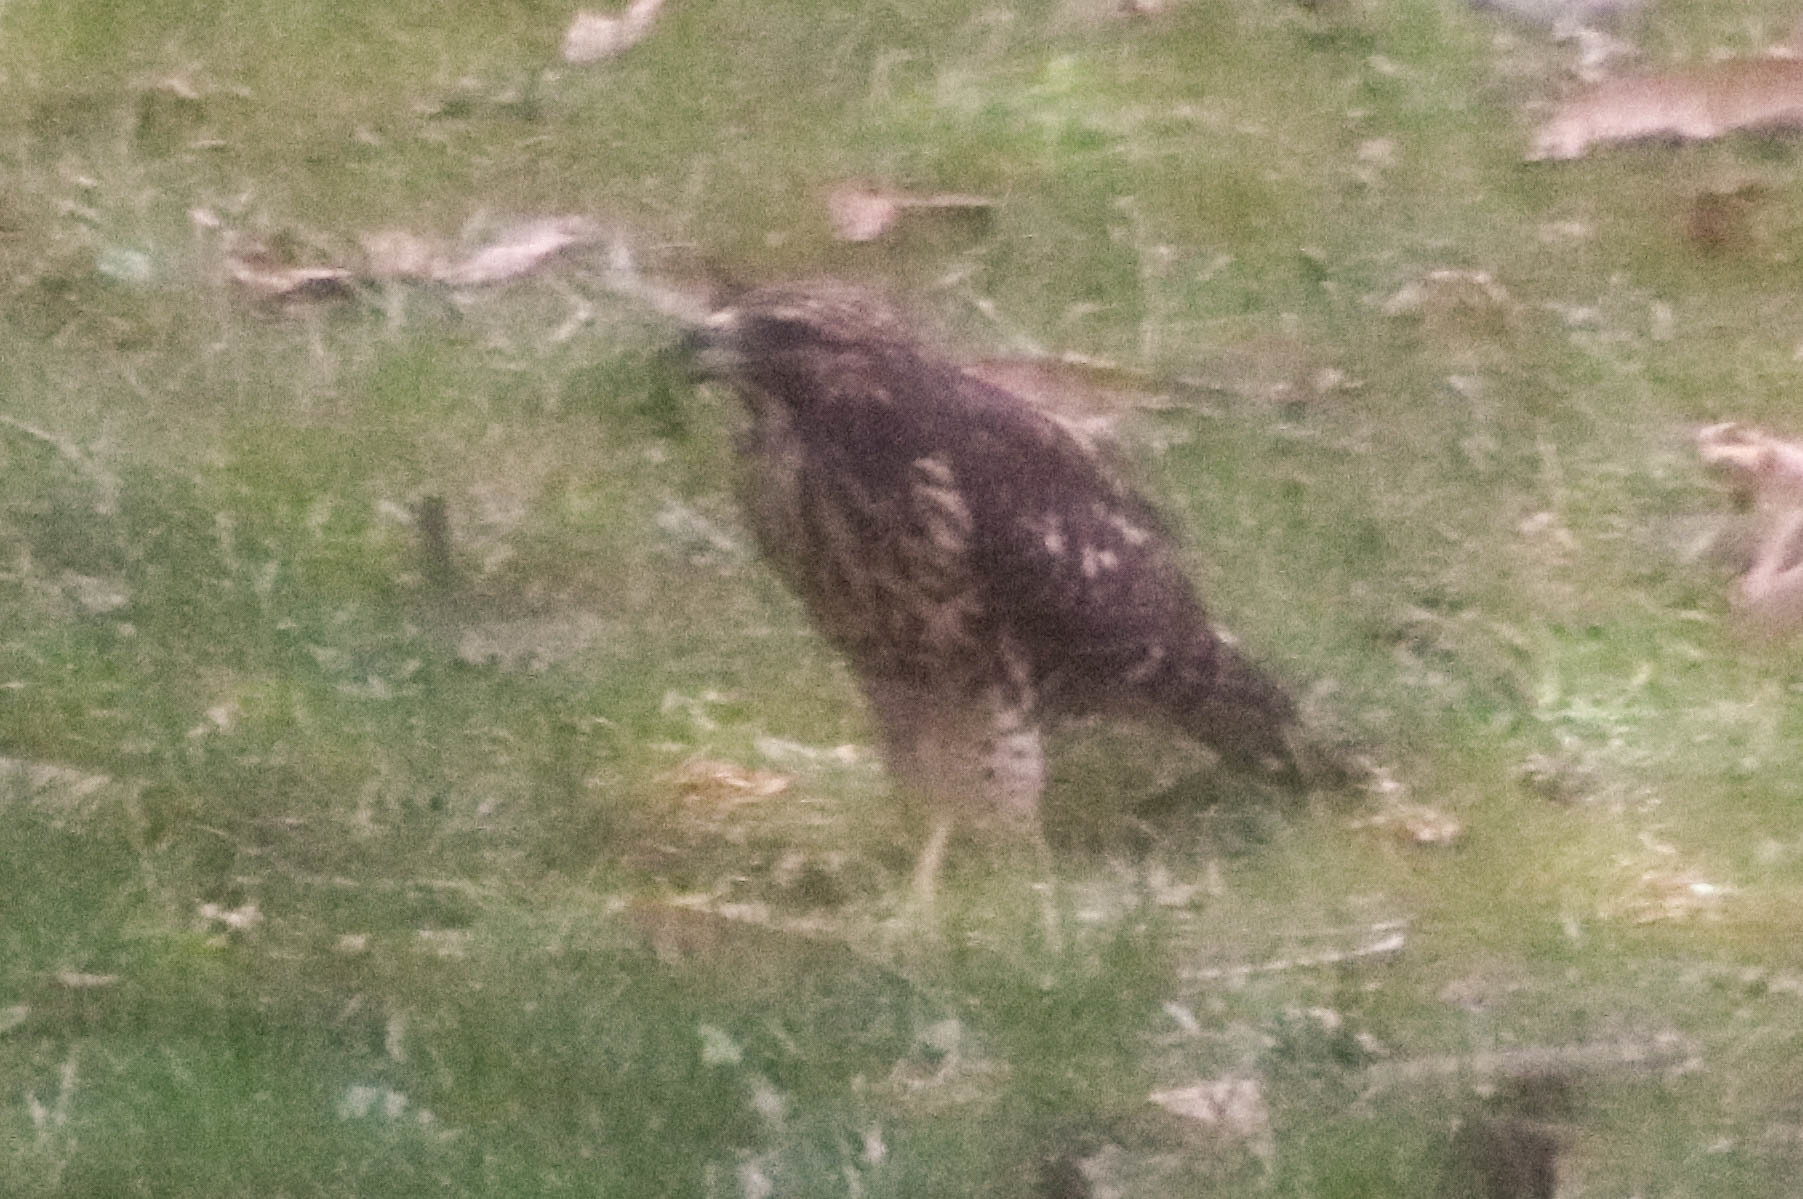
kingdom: Animalia
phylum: Chordata
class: Aves
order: Accipitriformes
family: Accipitridae
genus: Buteo
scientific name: Buteo lineatus
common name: Red-shouldered hawk
